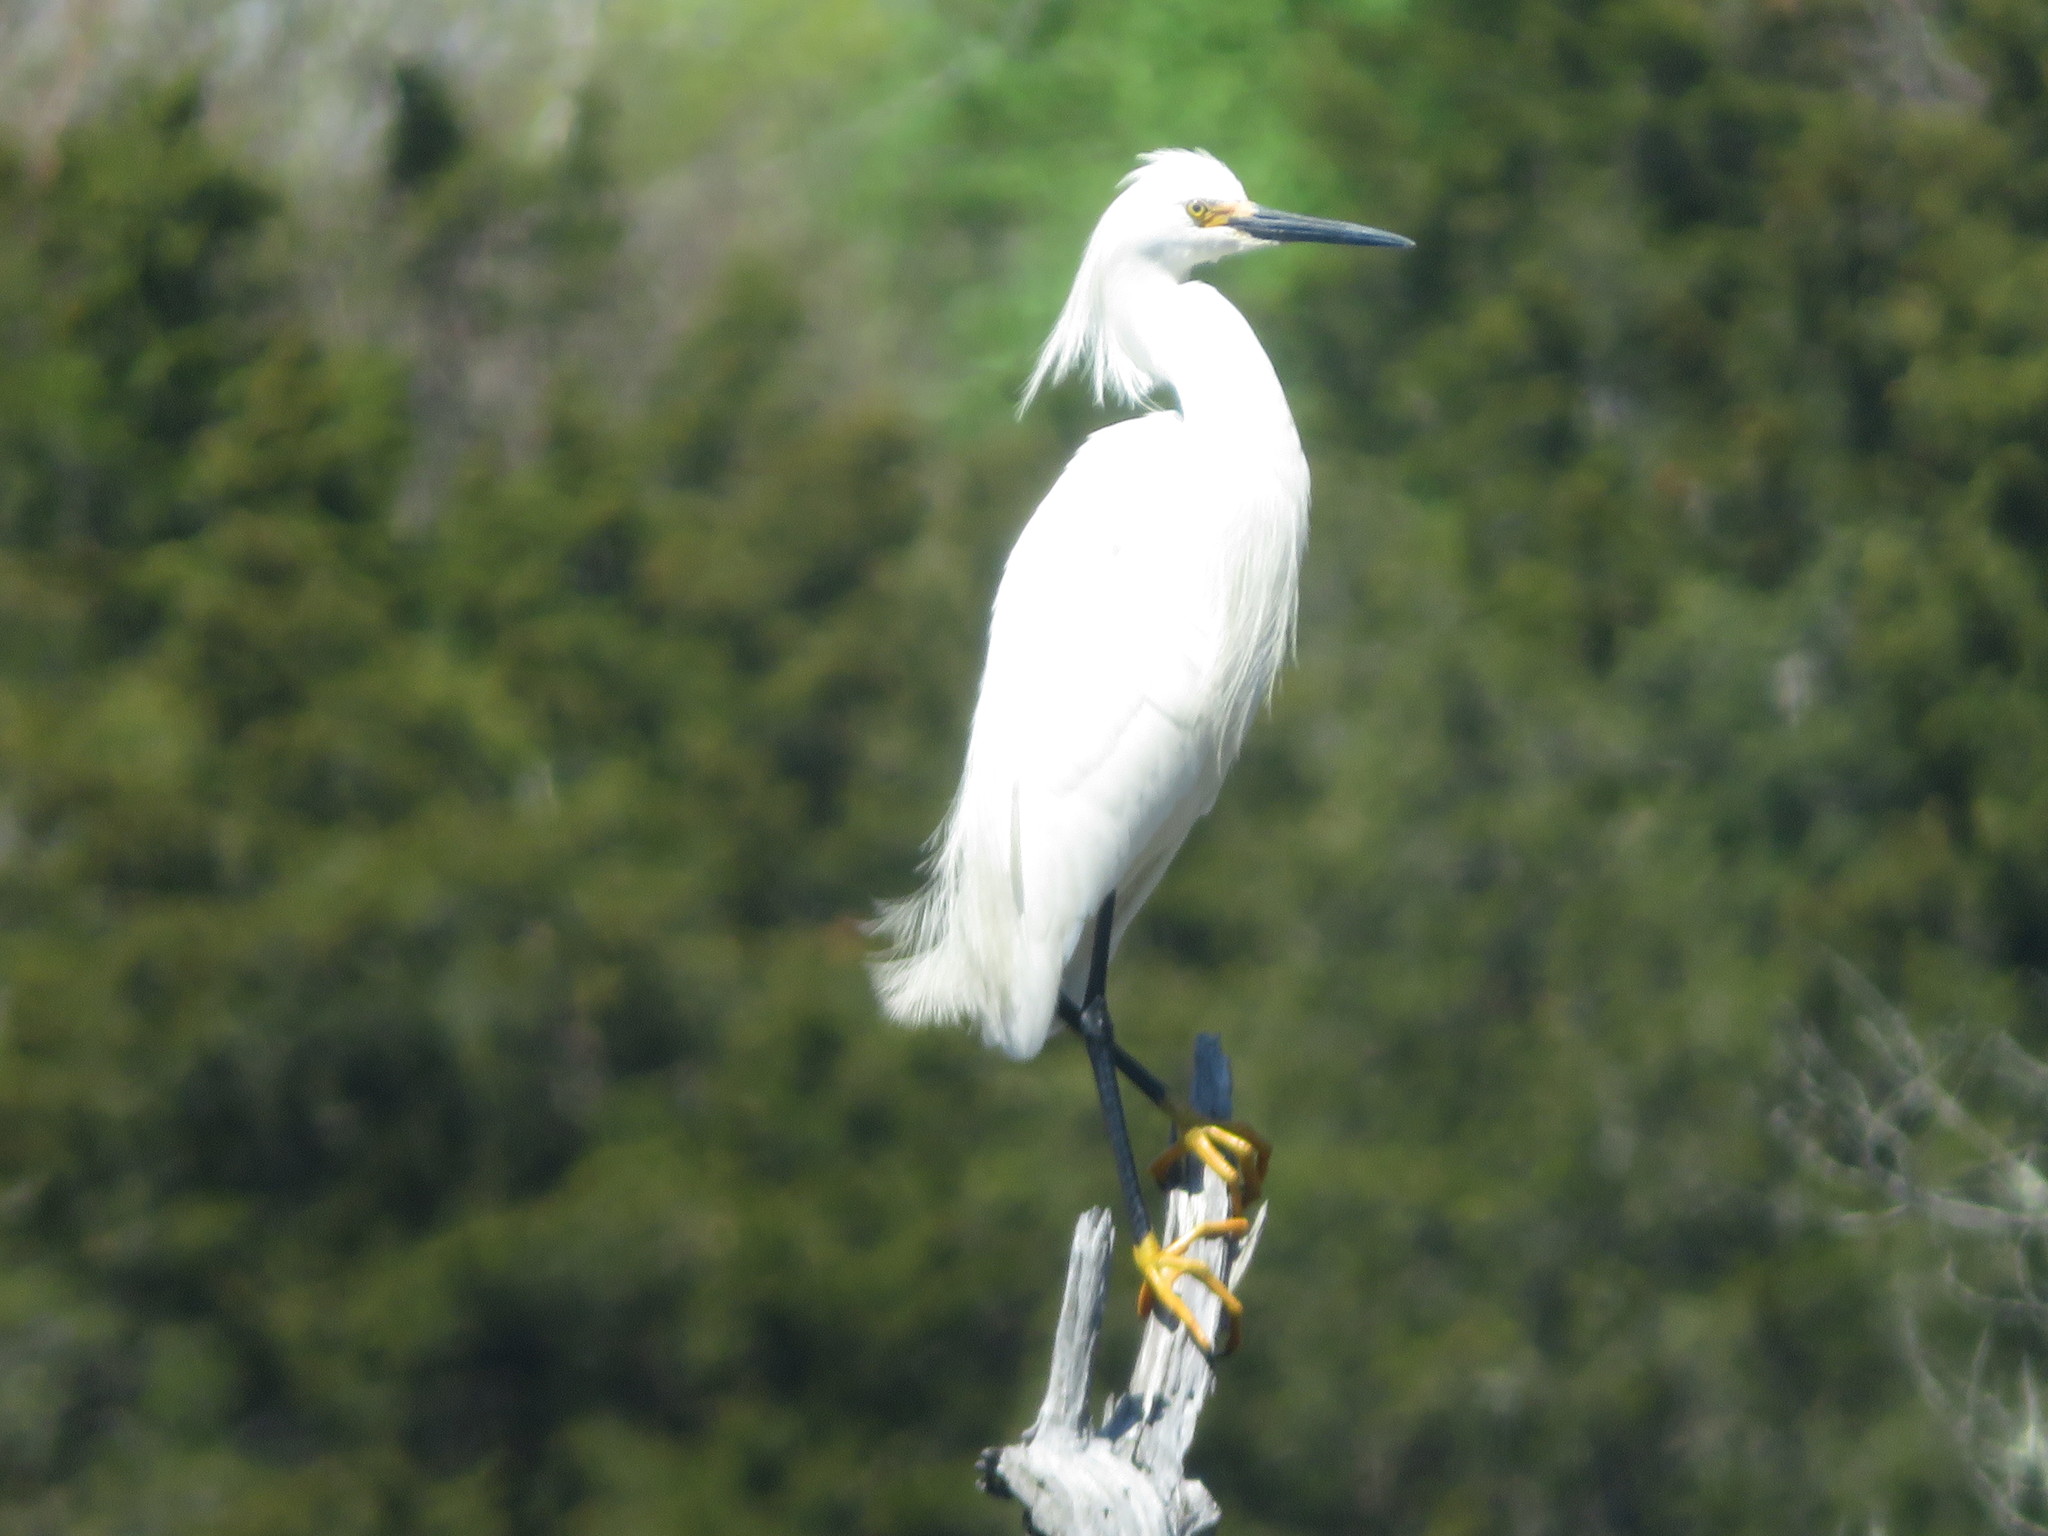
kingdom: Animalia
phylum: Chordata
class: Aves
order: Pelecaniformes
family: Ardeidae
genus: Egretta
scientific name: Egretta thula
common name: Snowy egret
